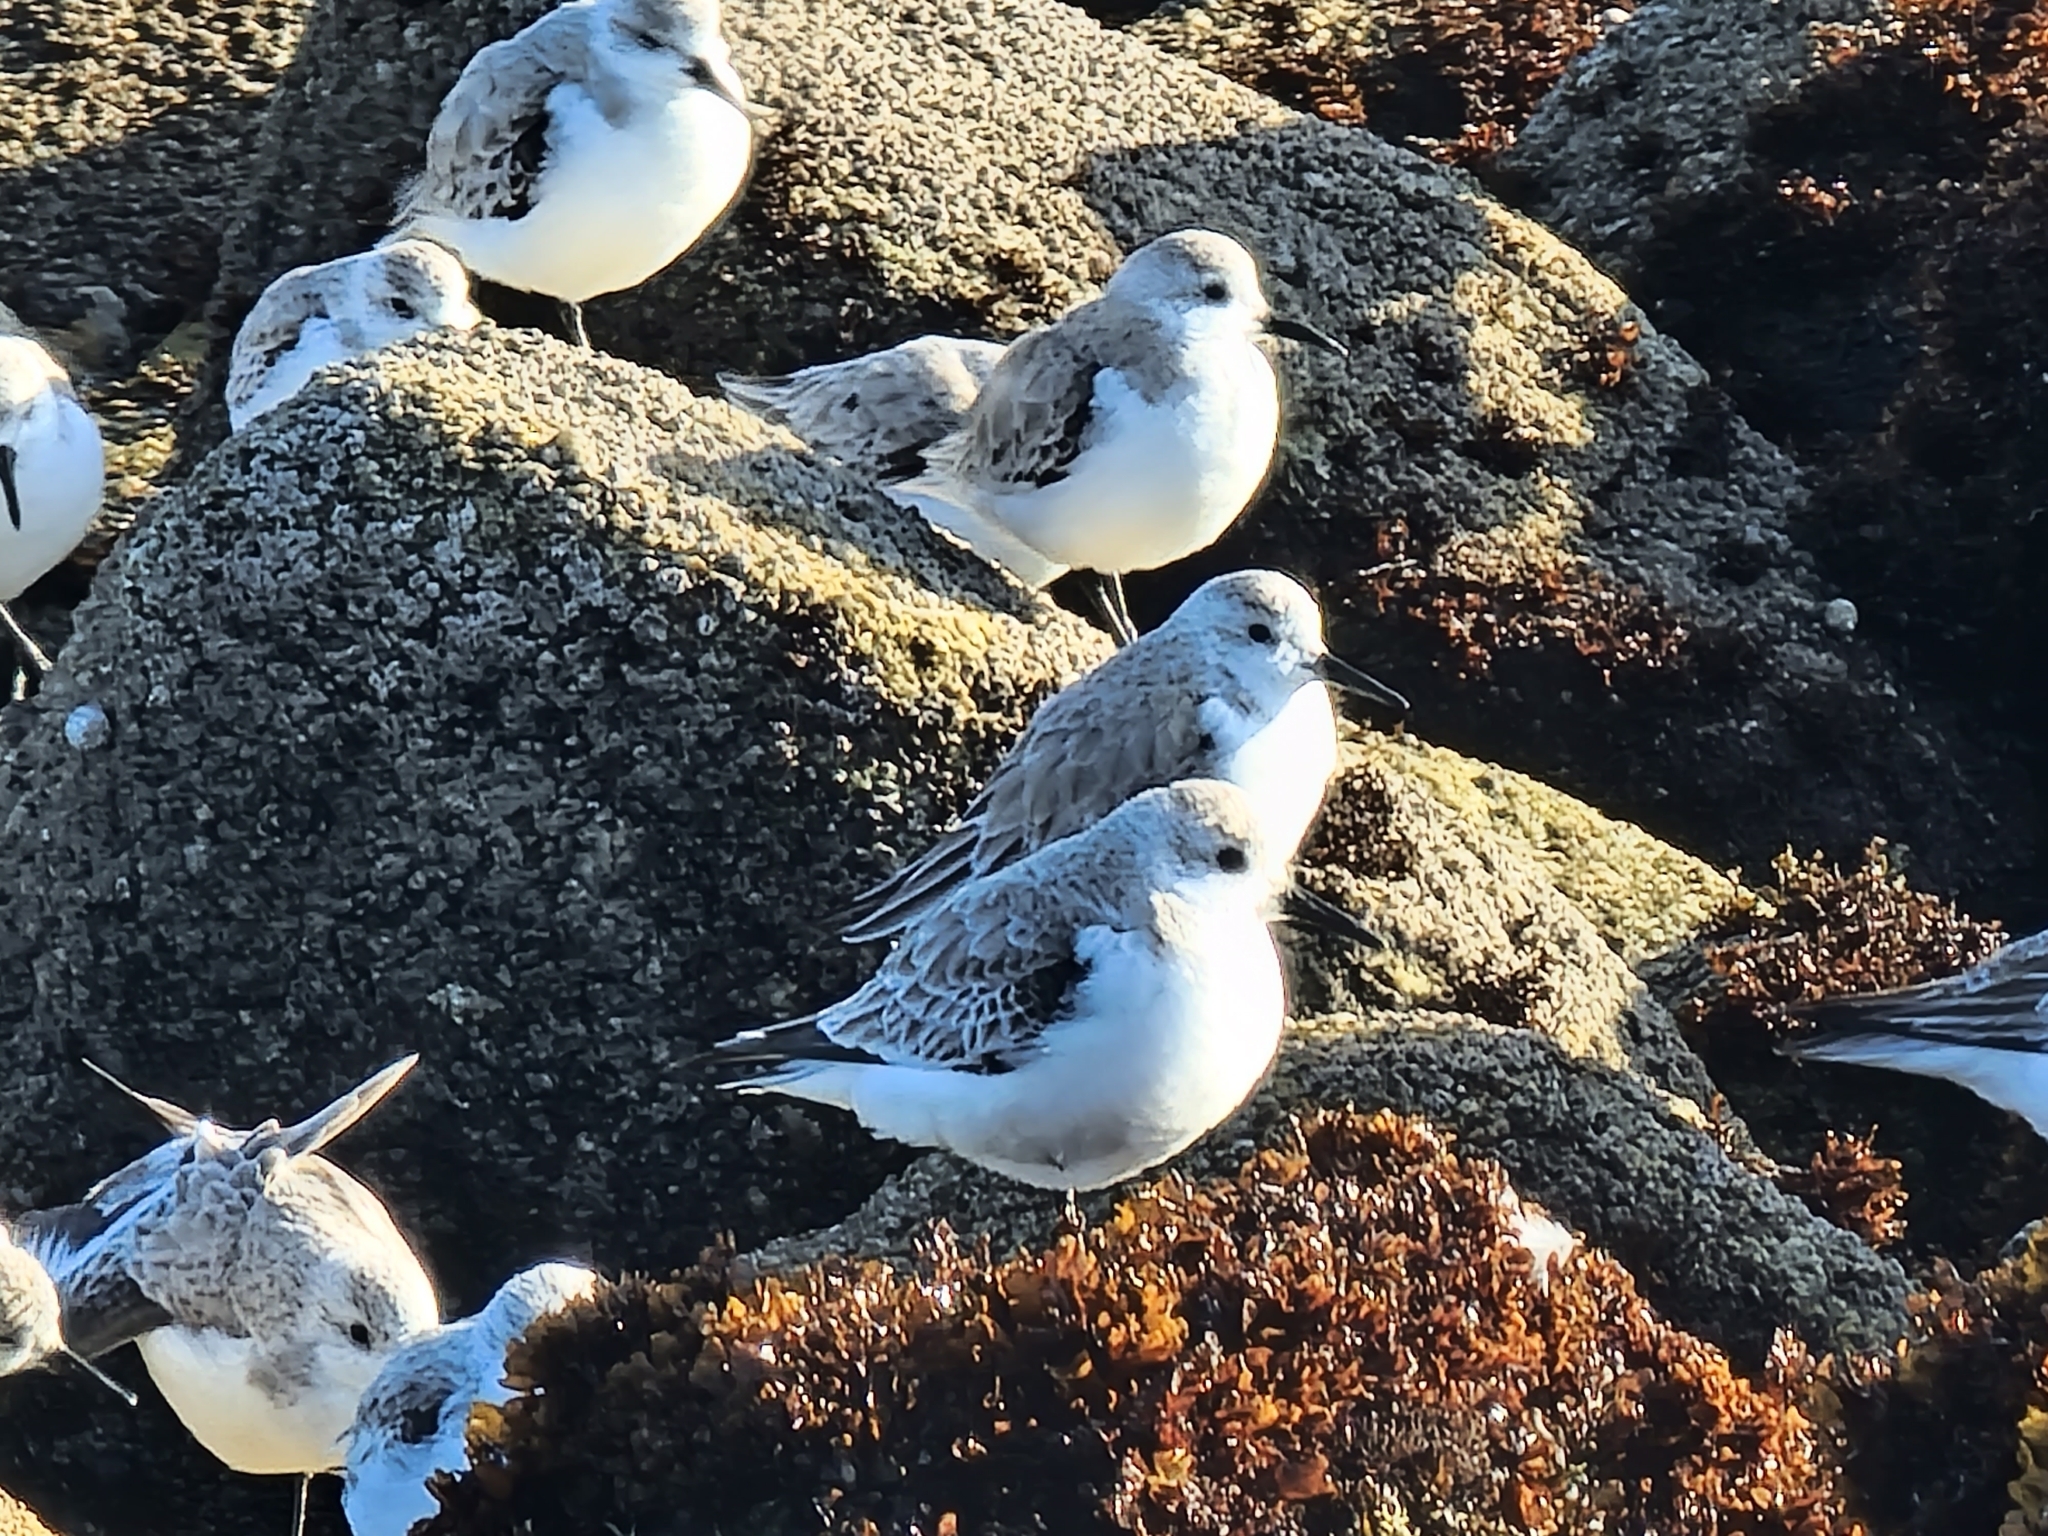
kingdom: Animalia
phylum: Chordata
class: Aves
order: Charadriiformes
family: Scolopacidae
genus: Calidris
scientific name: Calidris alba
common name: Sanderling
